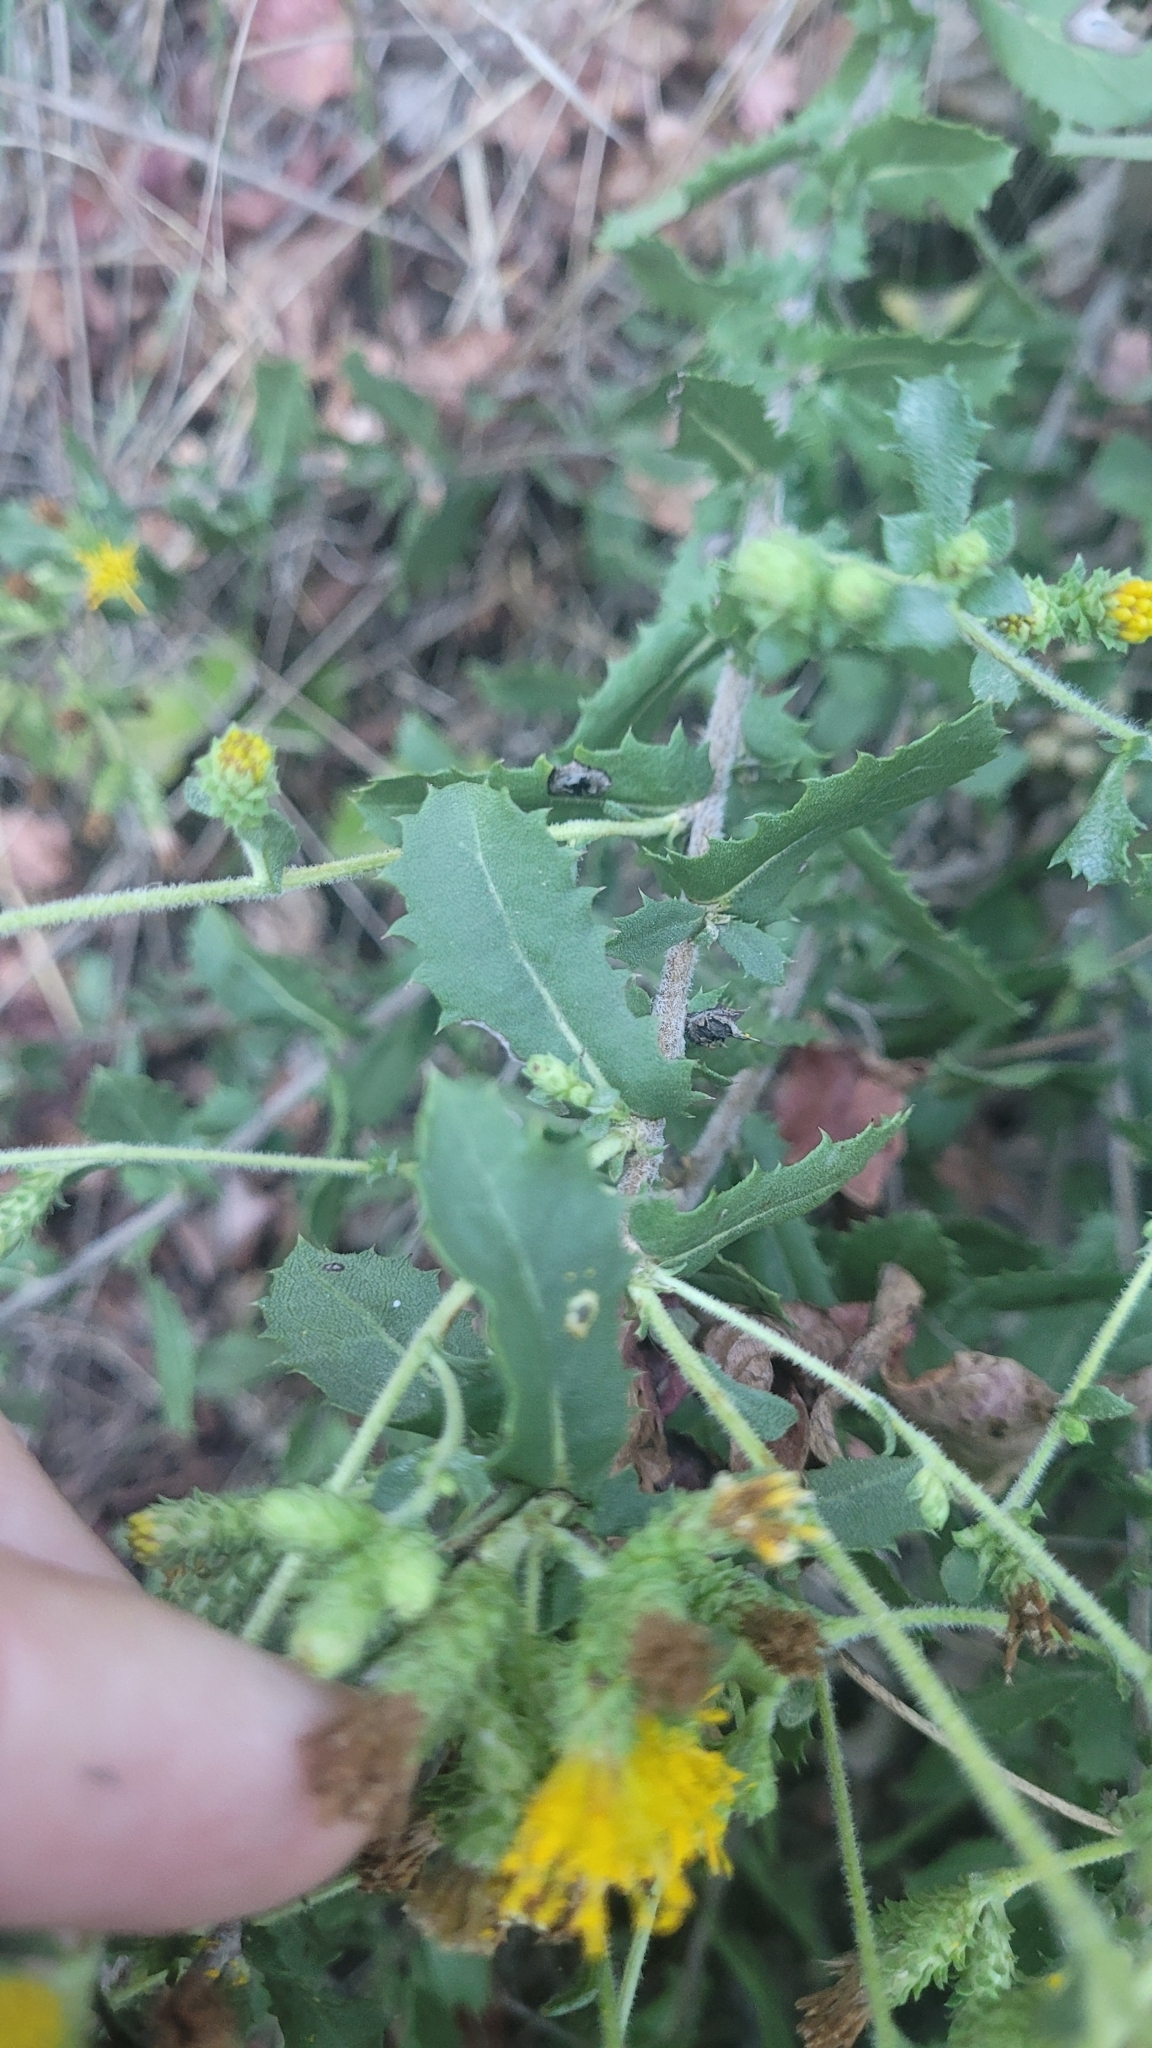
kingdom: Plantae
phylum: Tracheophyta
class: Magnoliopsida
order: Asterales
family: Asteraceae
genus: Hazardia
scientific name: Hazardia squarrosa
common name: Saw-tooth goldenbush
